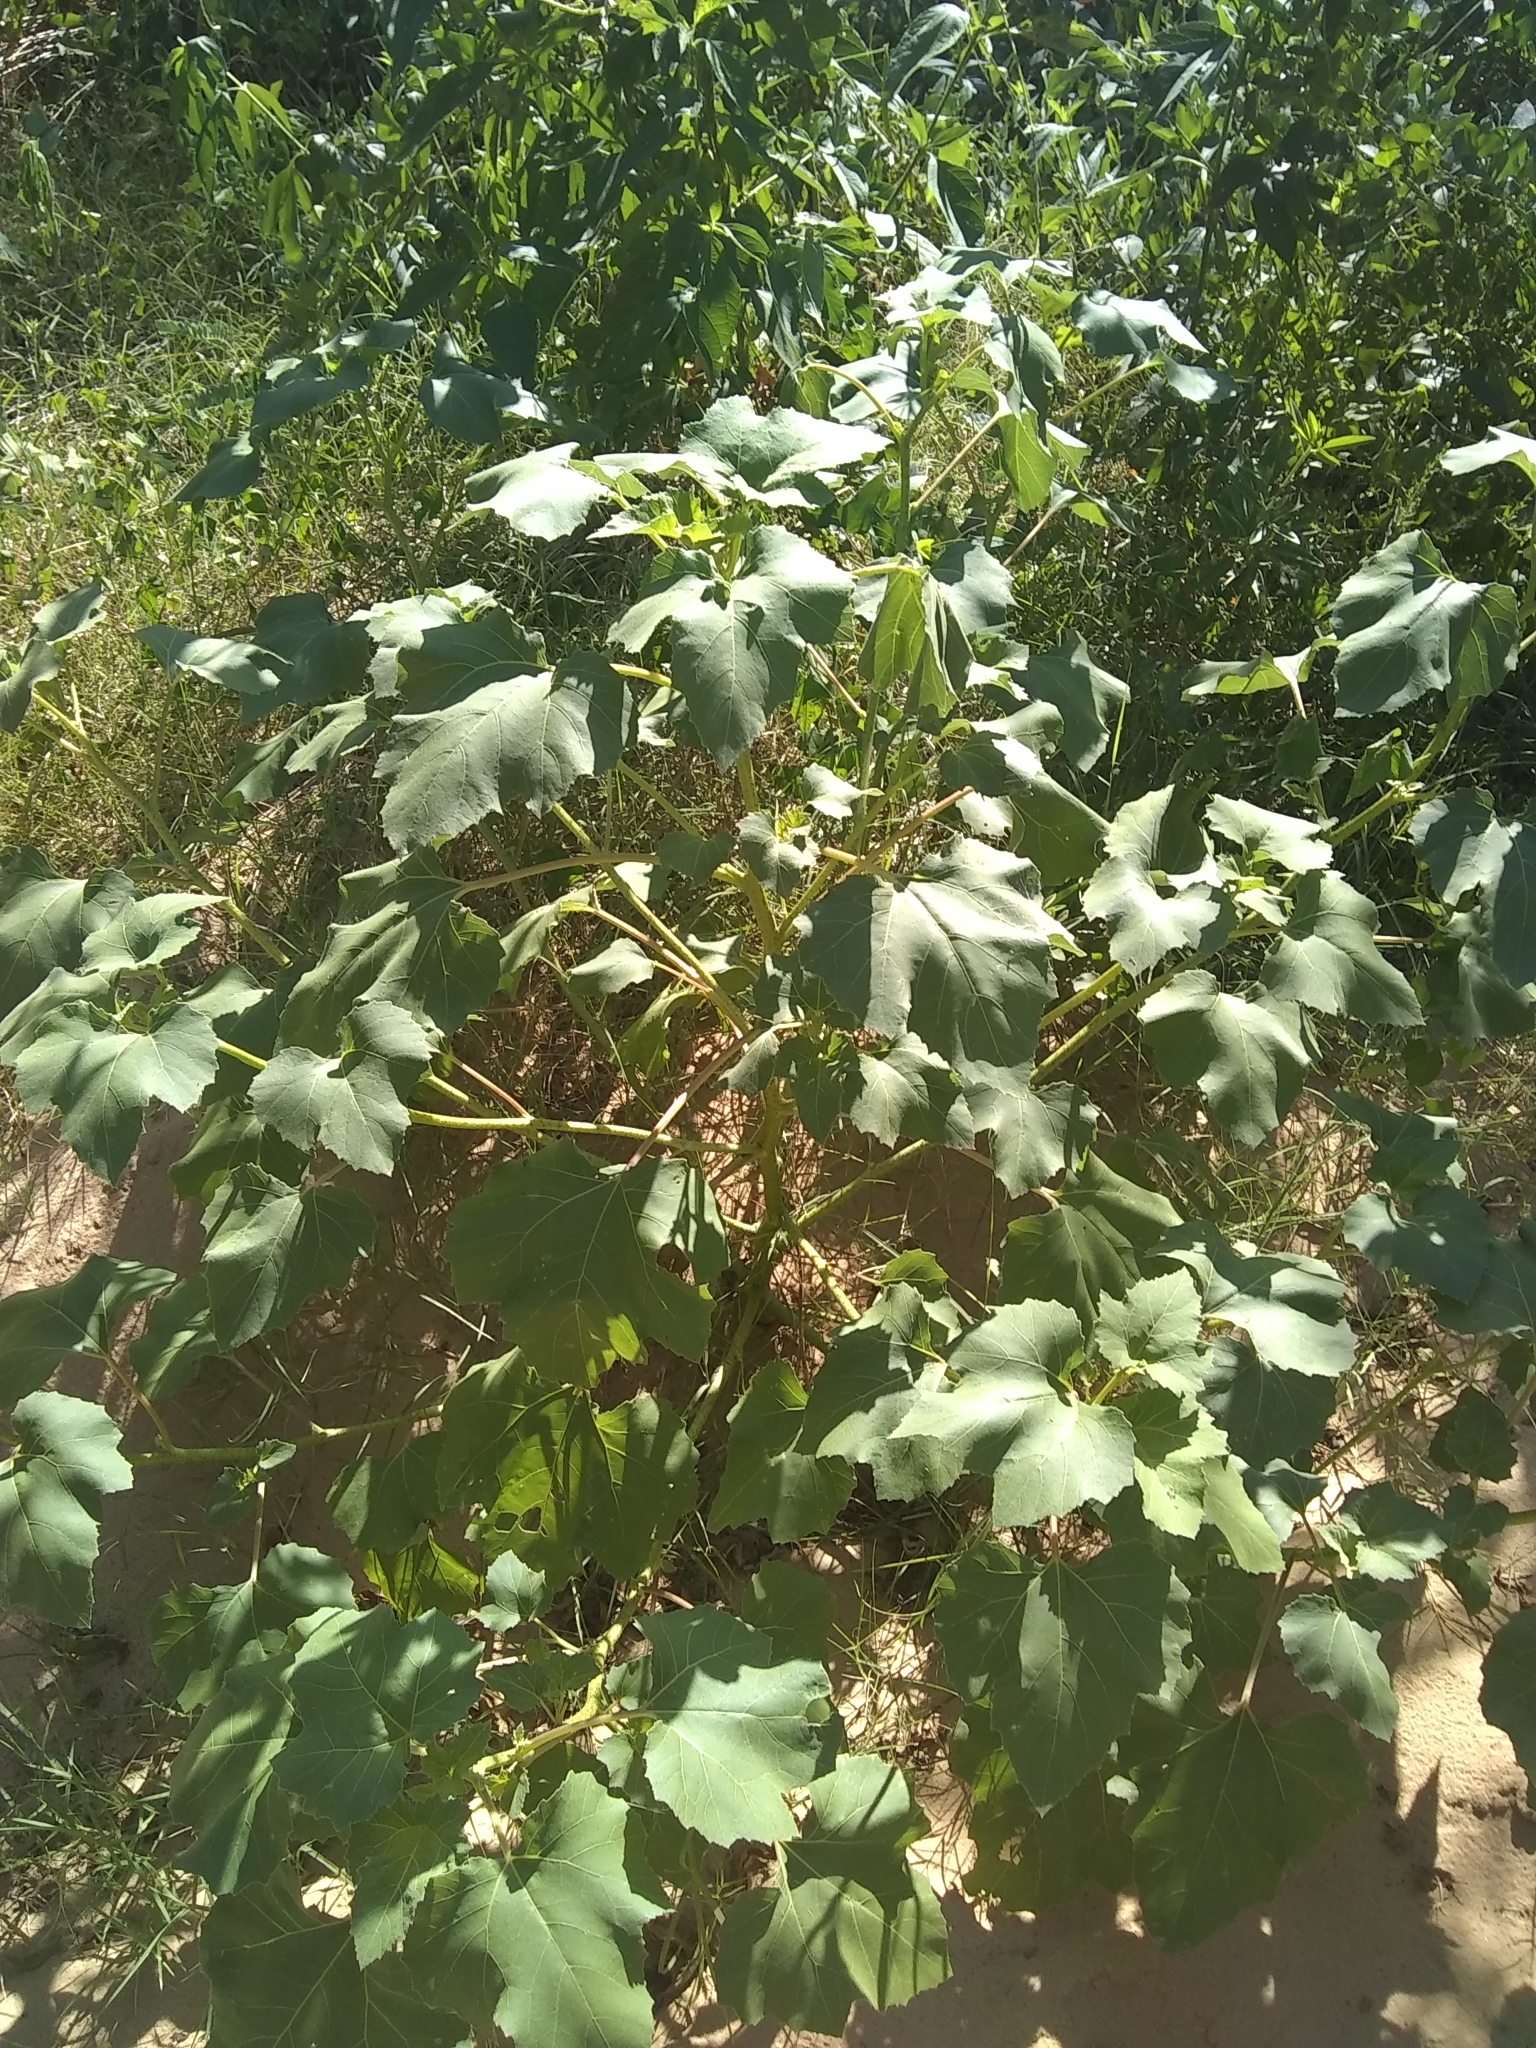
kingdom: Plantae
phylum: Tracheophyta
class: Magnoliopsida
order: Asterales
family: Asteraceae
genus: Xanthium
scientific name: Xanthium strumarium
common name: Rough cocklebur
